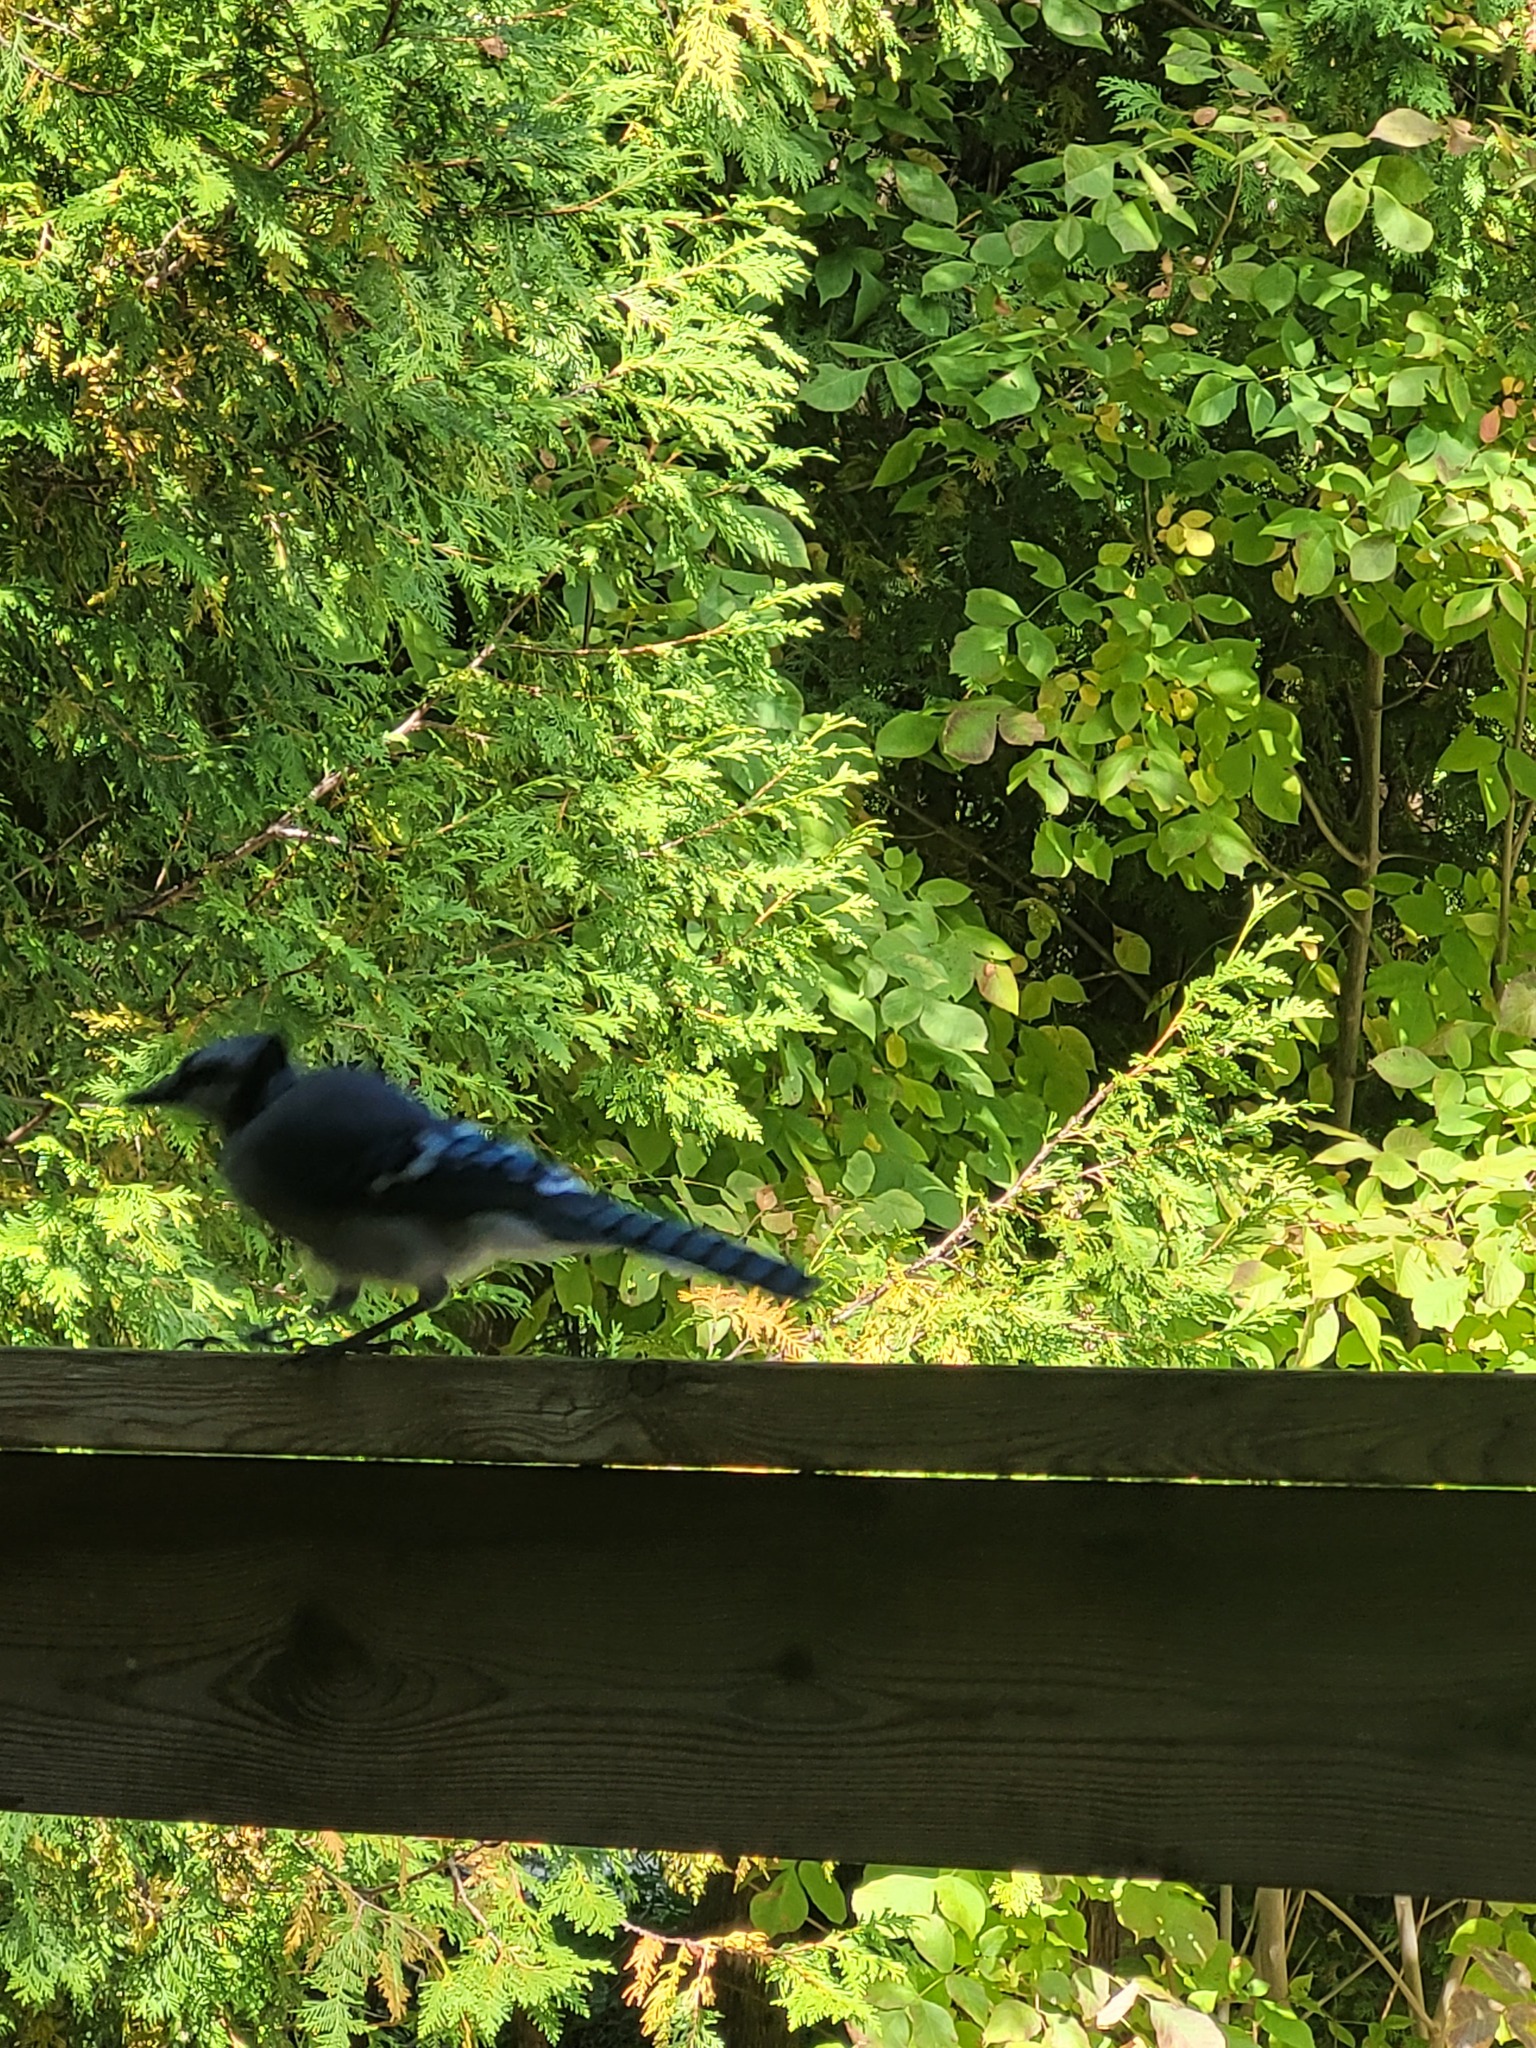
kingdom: Animalia
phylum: Chordata
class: Aves
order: Passeriformes
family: Corvidae
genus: Cyanocitta
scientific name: Cyanocitta cristata
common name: Blue jay
